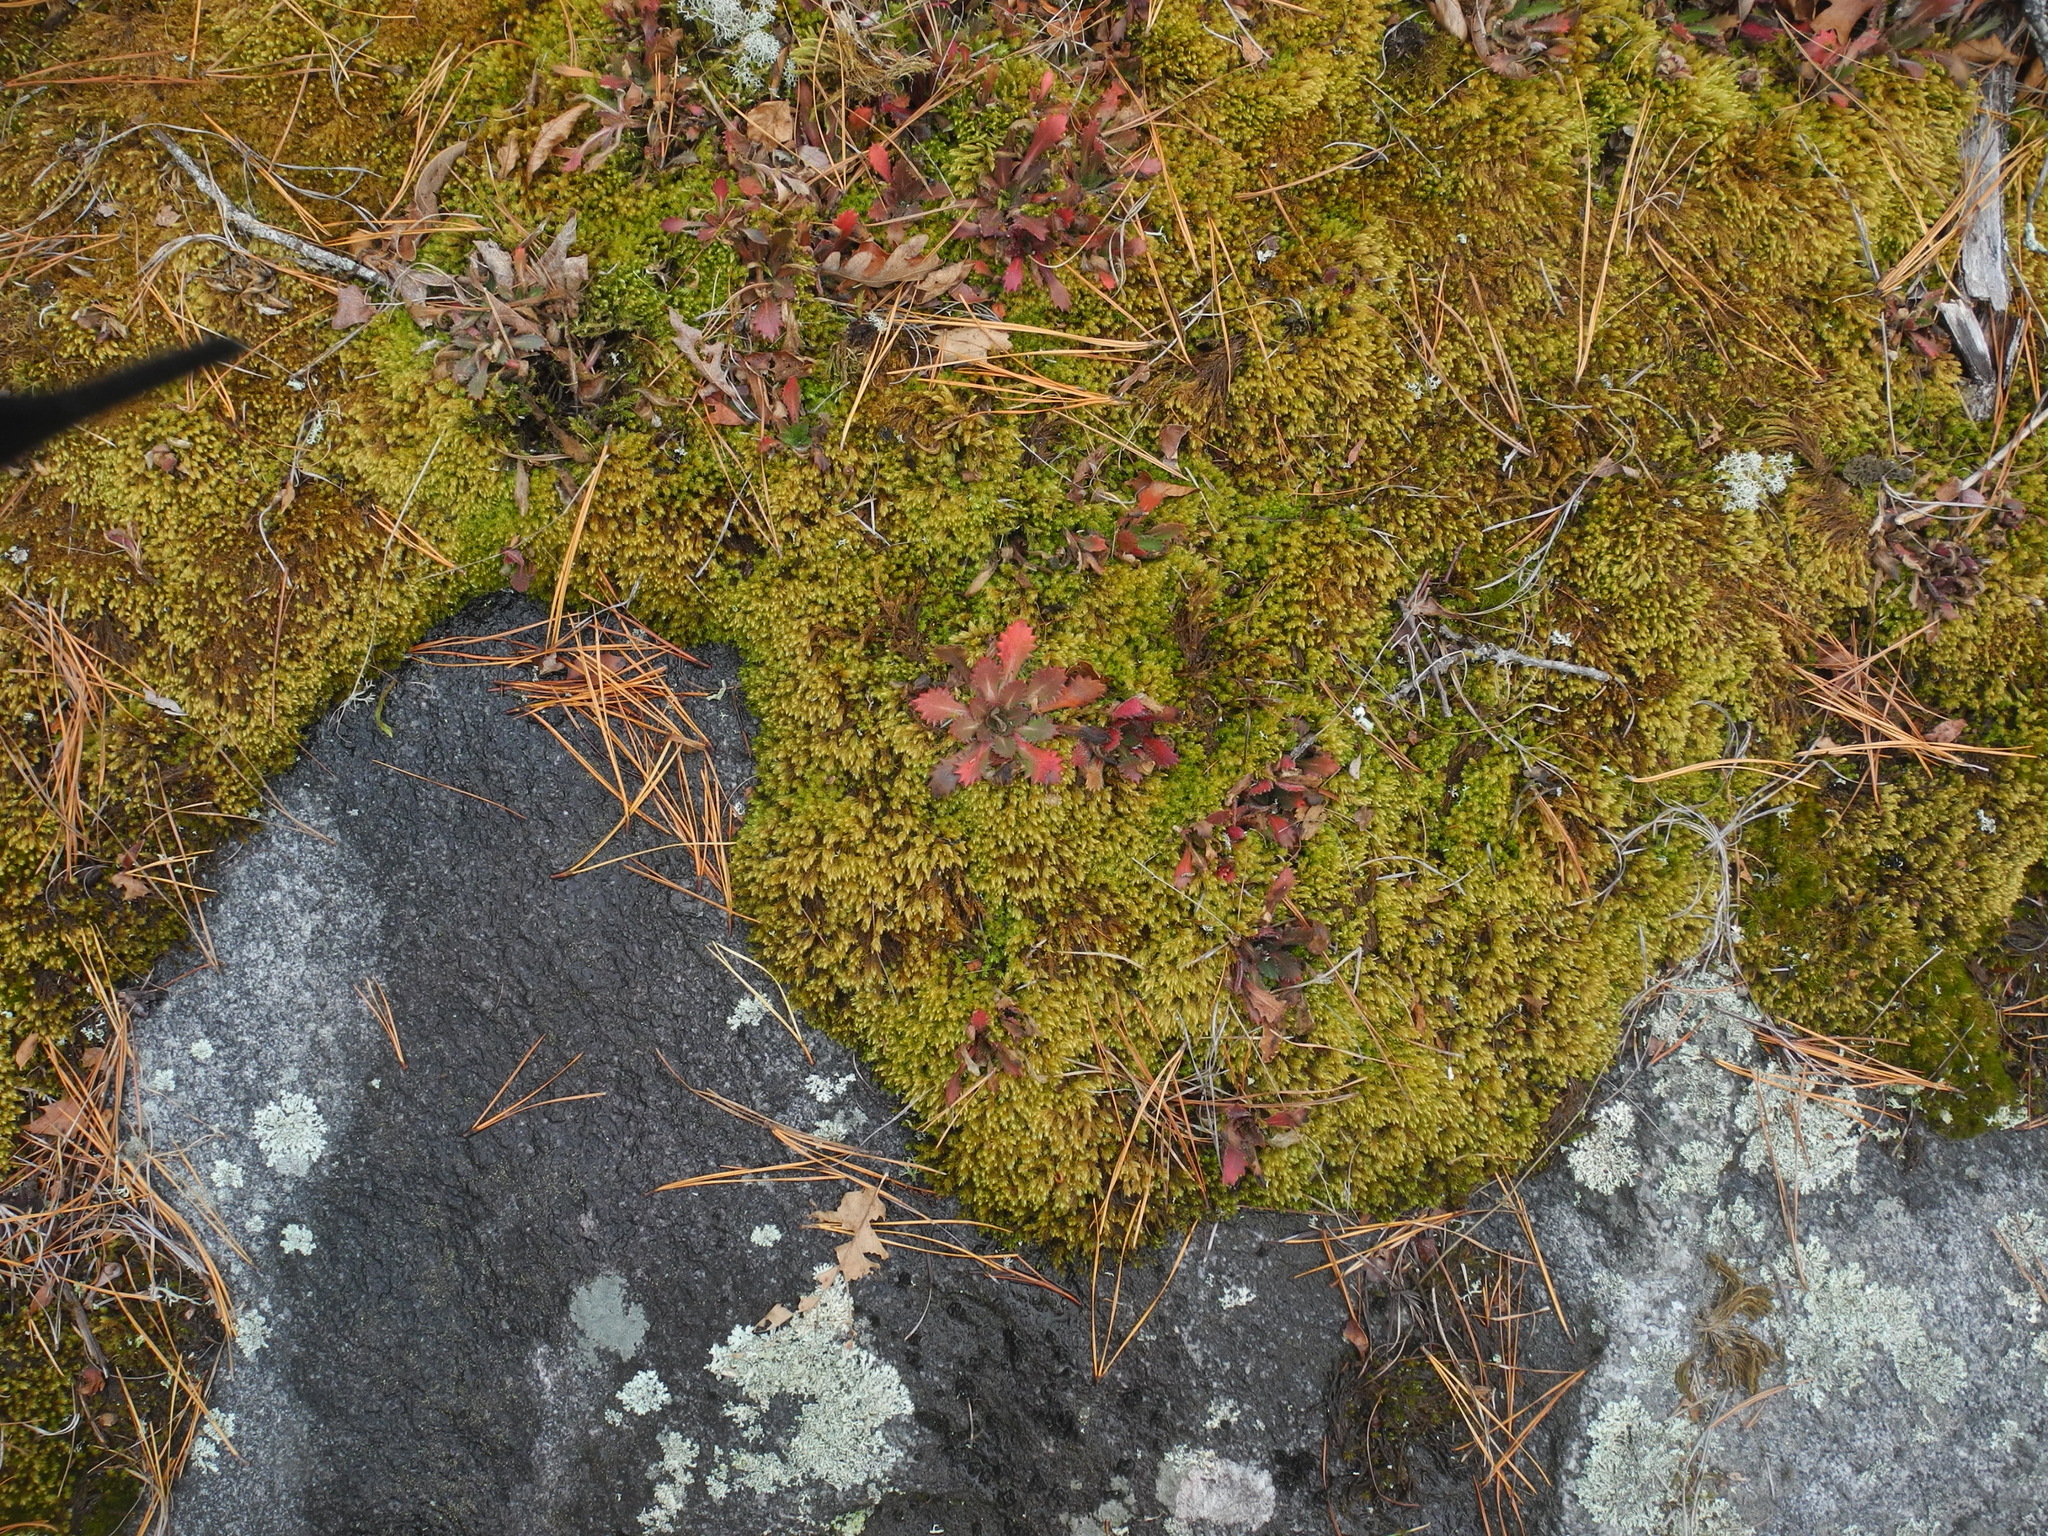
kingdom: Plantae
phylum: Tracheophyta
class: Magnoliopsida
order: Saxifragales
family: Saxifragaceae
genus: Micranthes
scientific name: Micranthes petiolaris
